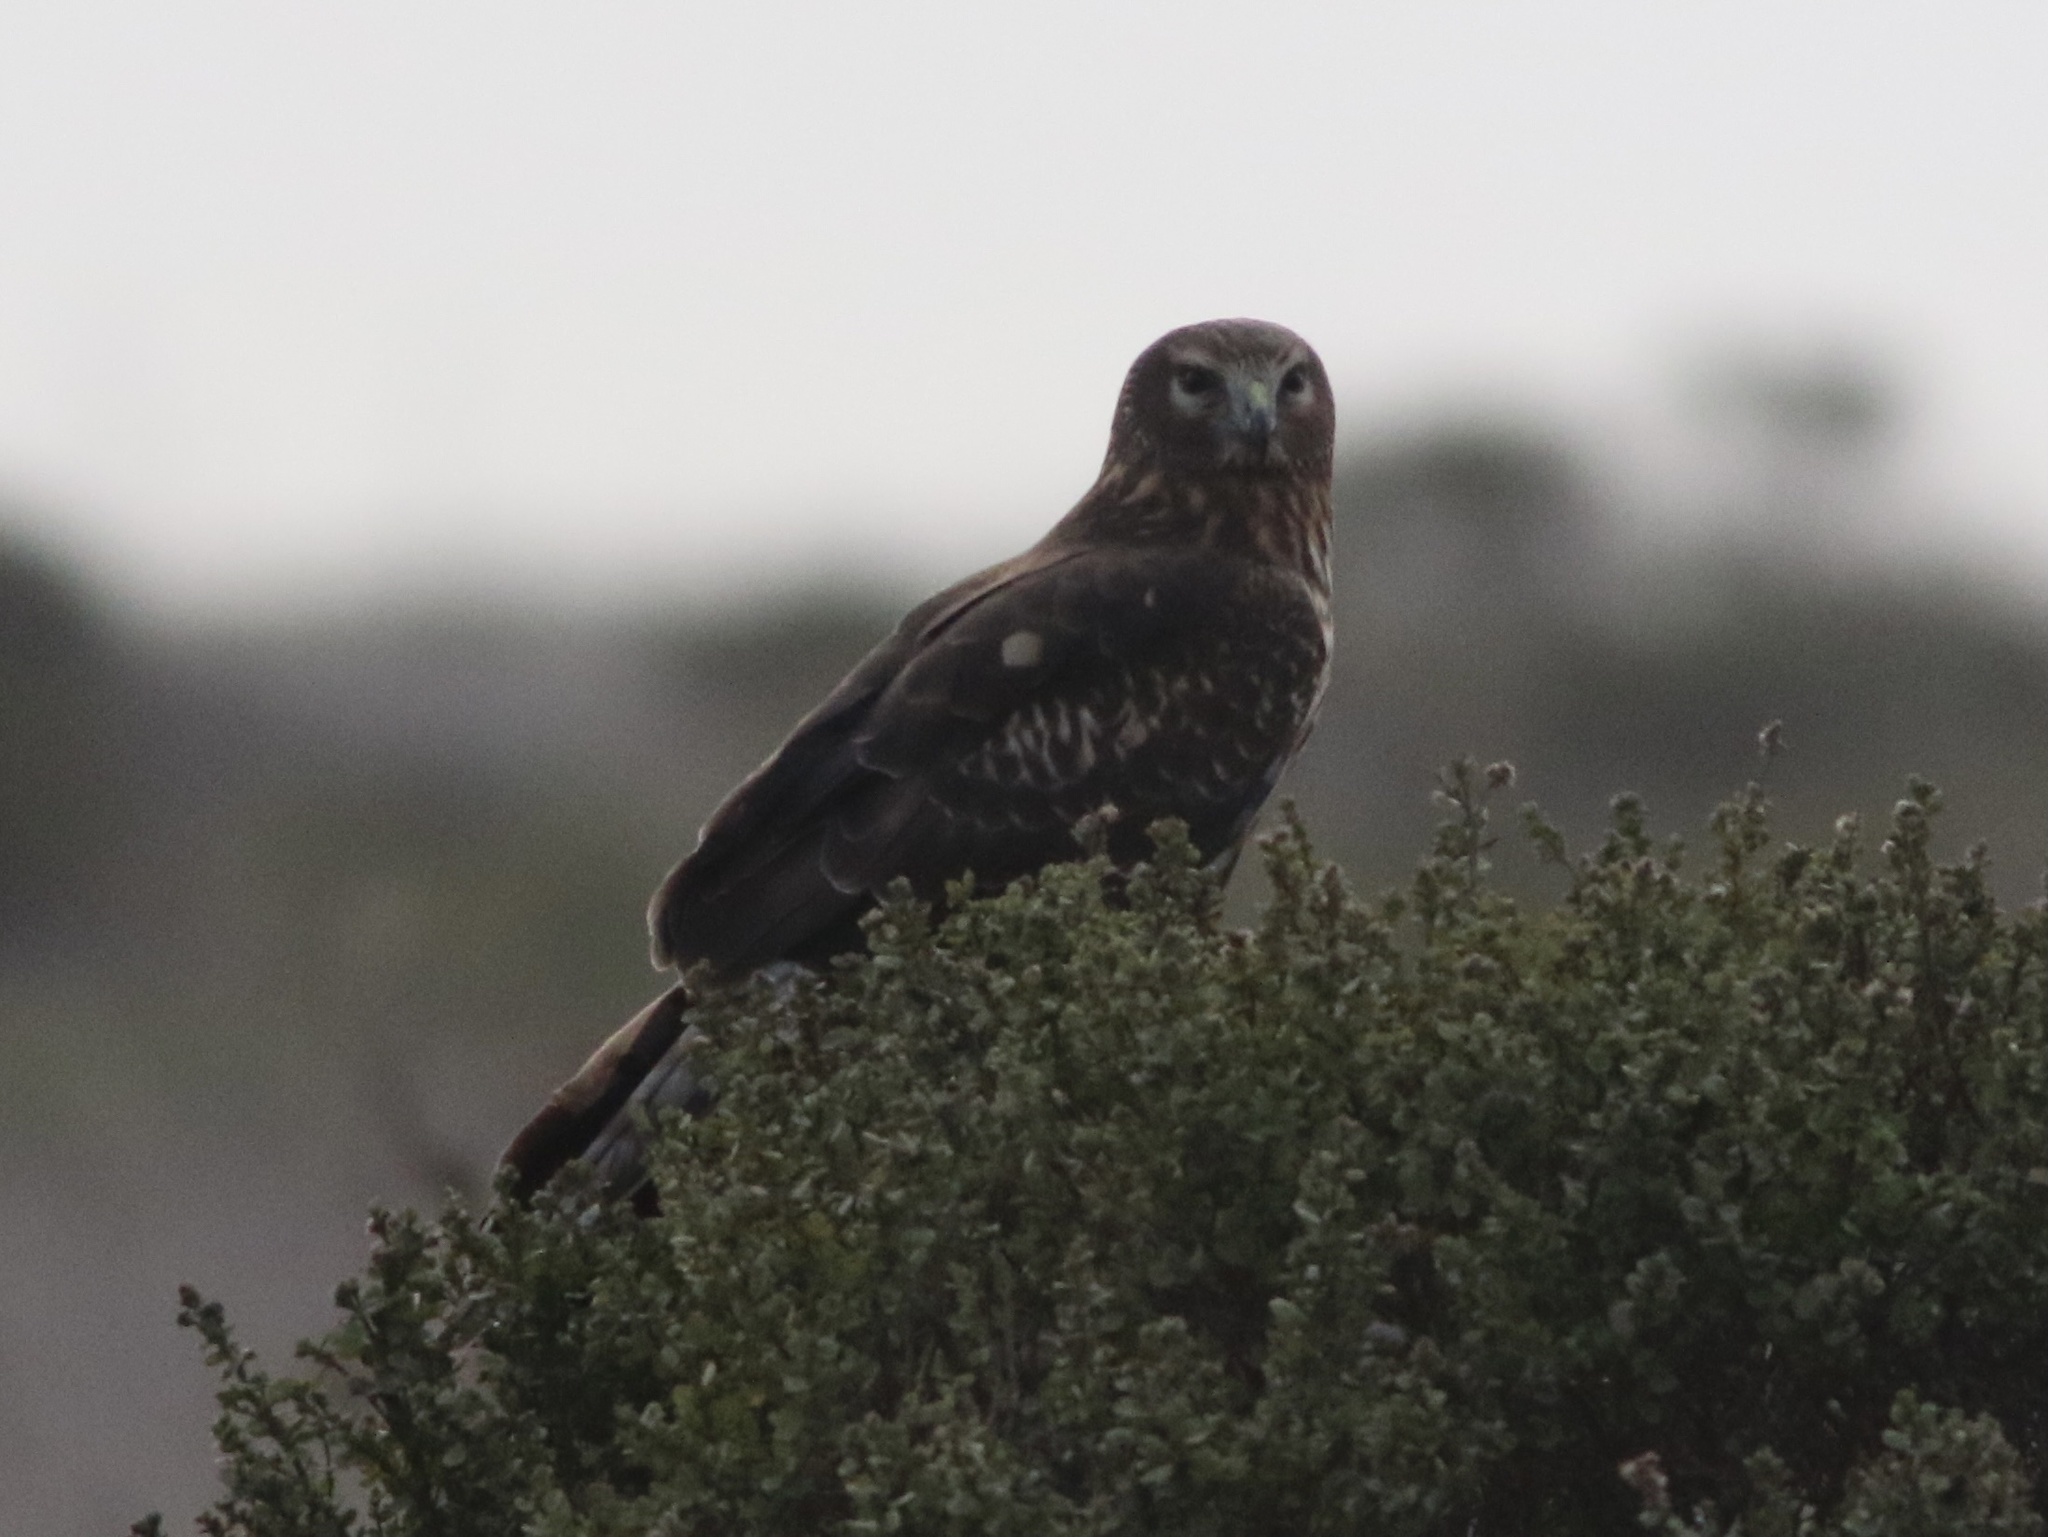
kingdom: Animalia
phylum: Chordata
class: Aves
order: Accipitriformes
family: Accipitridae
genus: Circus
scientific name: Circus cyaneus
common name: Hen harrier
